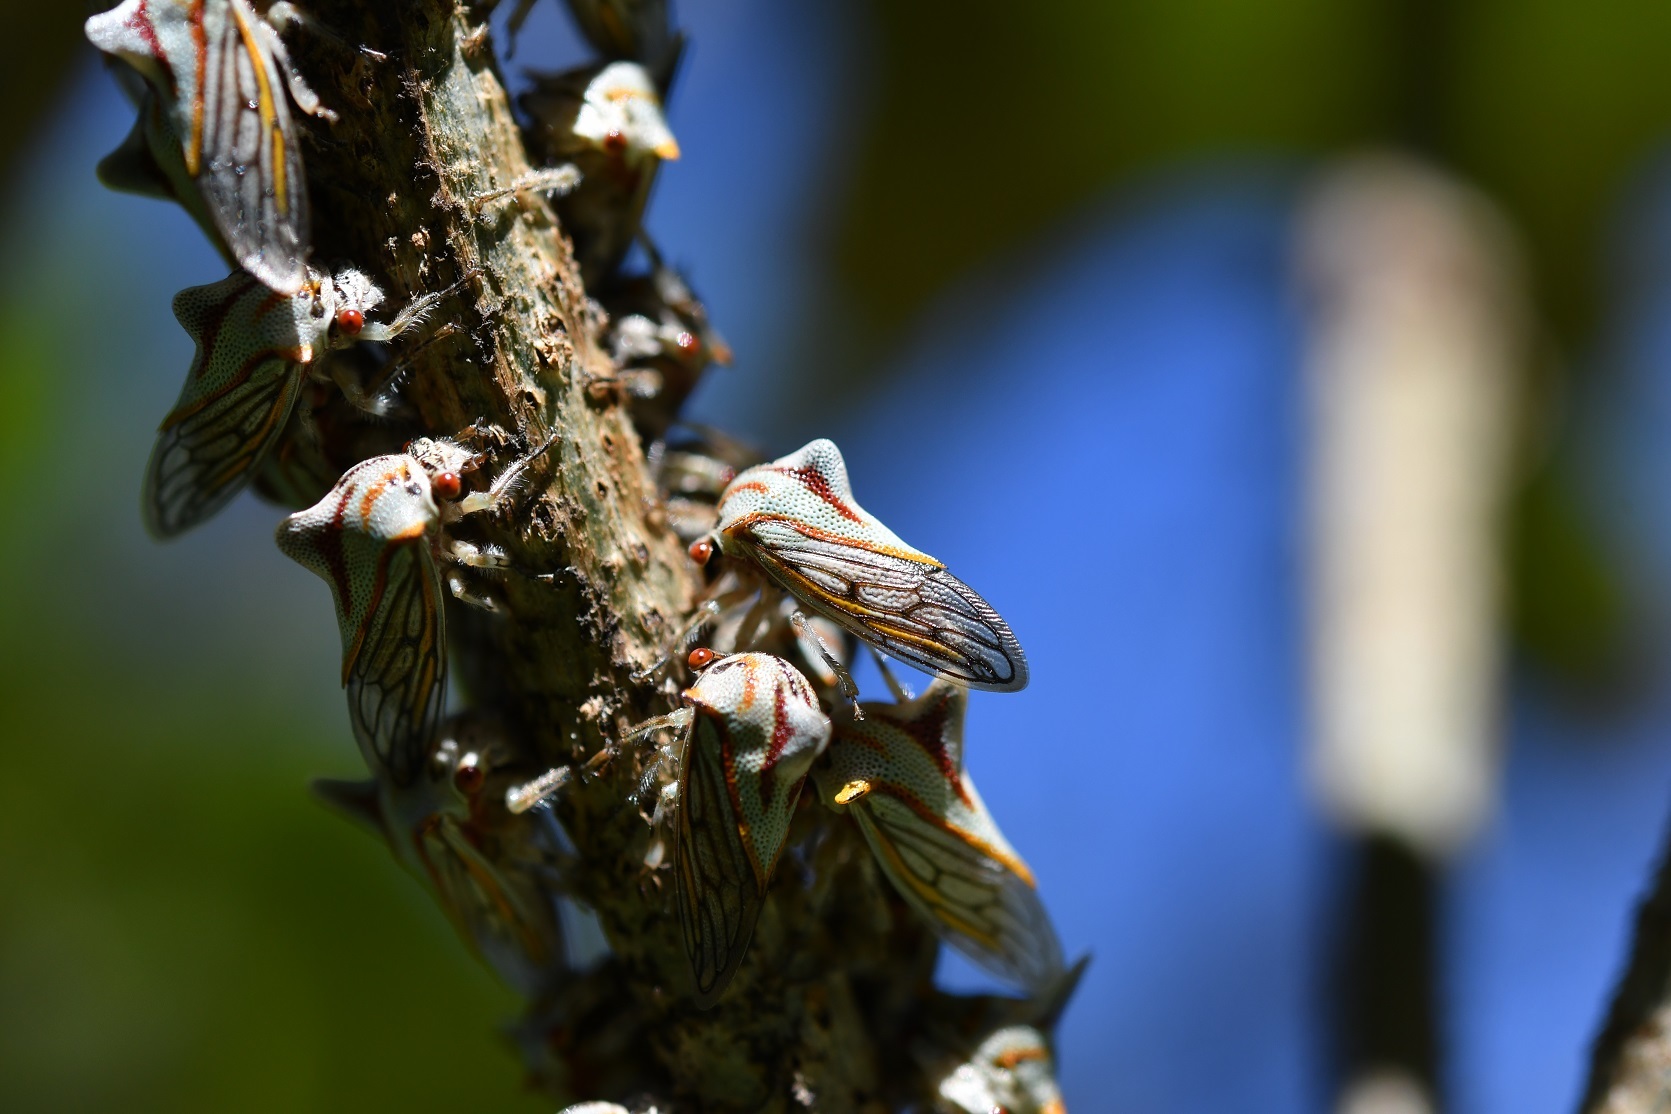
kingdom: Animalia
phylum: Arthropoda
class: Insecta
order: Hemiptera
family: Membracidae
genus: Platycotis
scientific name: Platycotis tuberculata
